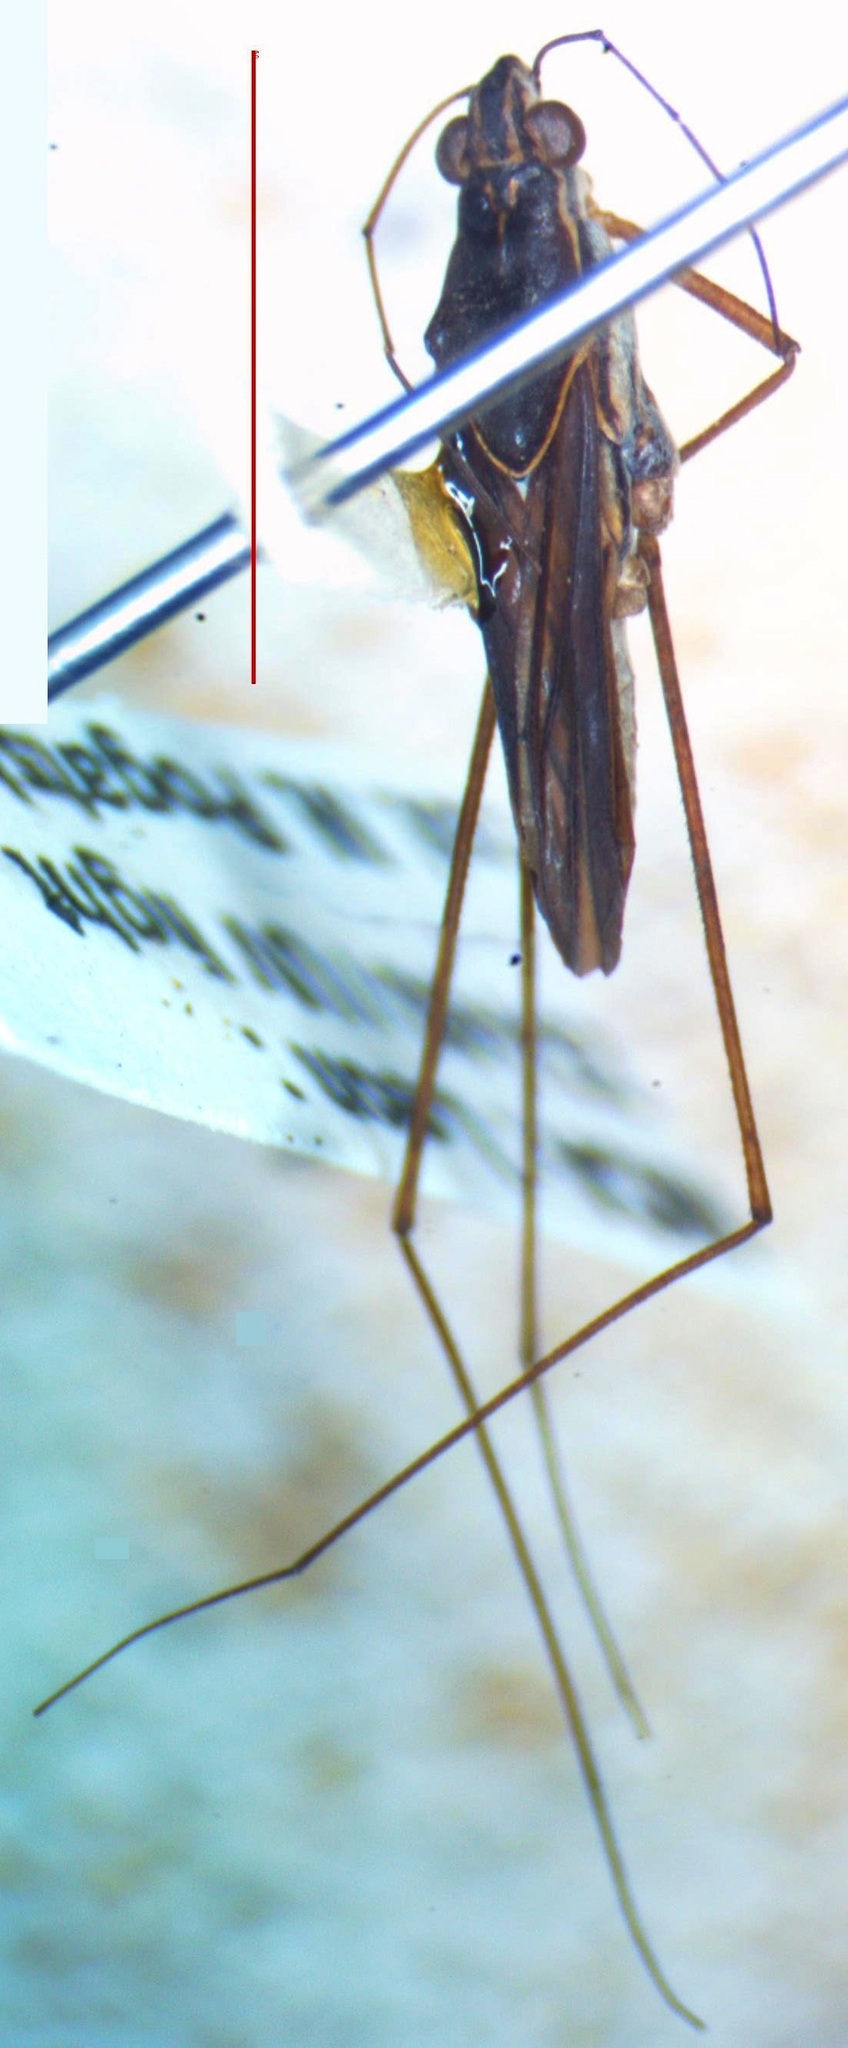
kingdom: Animalia
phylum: Arthropoda
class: Insecta
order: Hemiptera
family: Gerridae
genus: Limnogonus
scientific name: Limnogonus
